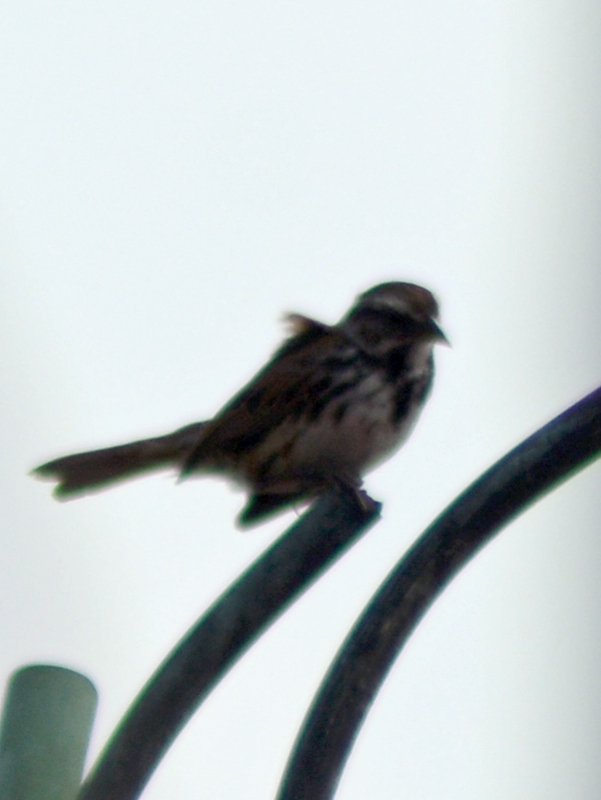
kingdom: Animalia
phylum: Chordata
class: Aves
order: Passeriformes
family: Passerellidae
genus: Melospiza
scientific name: Melospiza melodia
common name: Song sparrow
